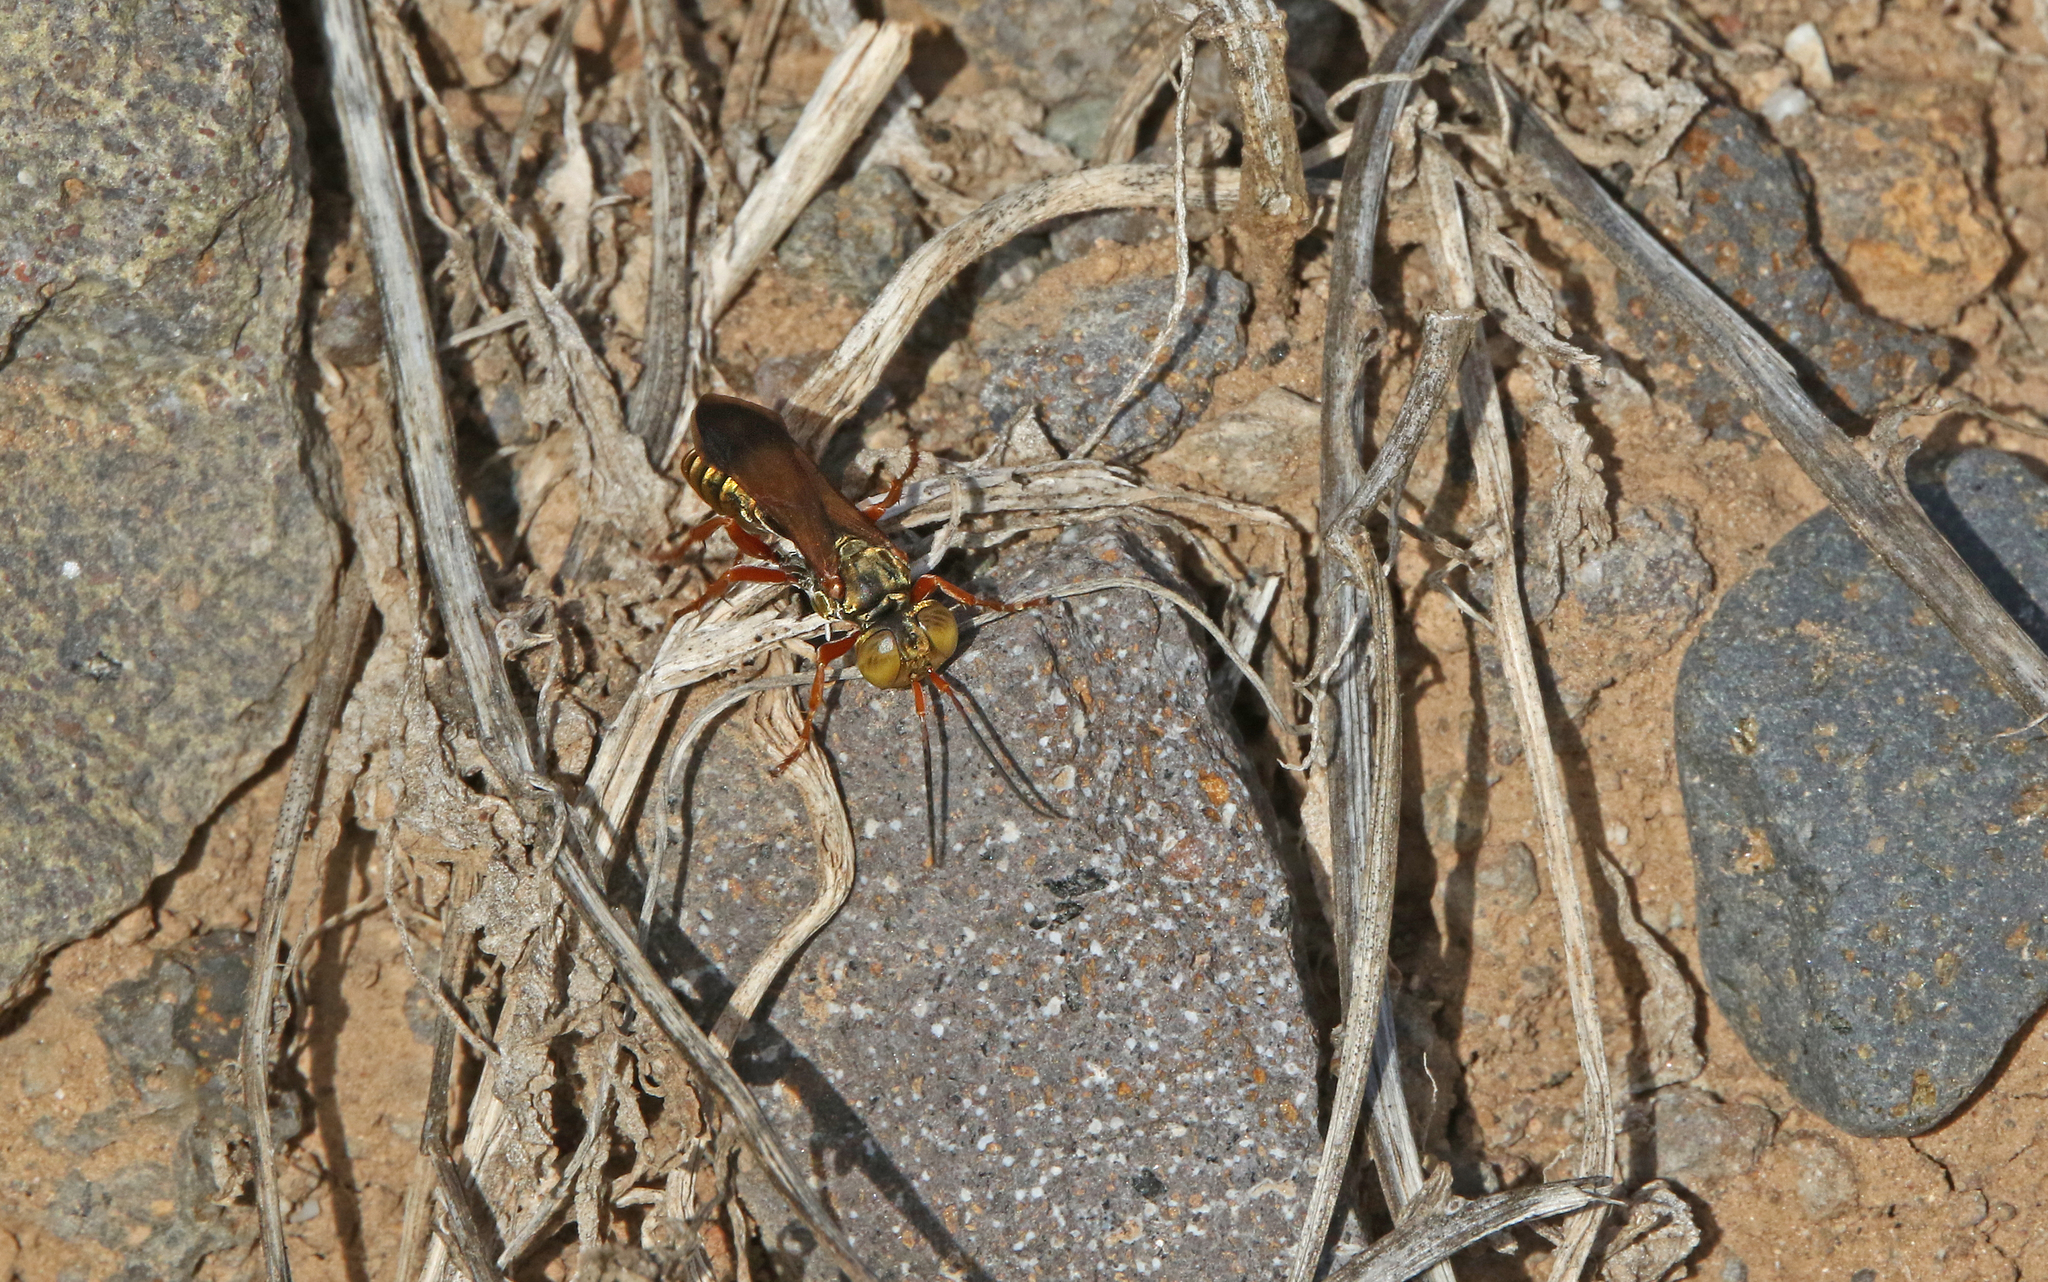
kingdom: Animalia
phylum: Arthropoda
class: Insecta
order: Hymenoptera
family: Crabronidae
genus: Liris
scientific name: Liris haemorrhoidalis
